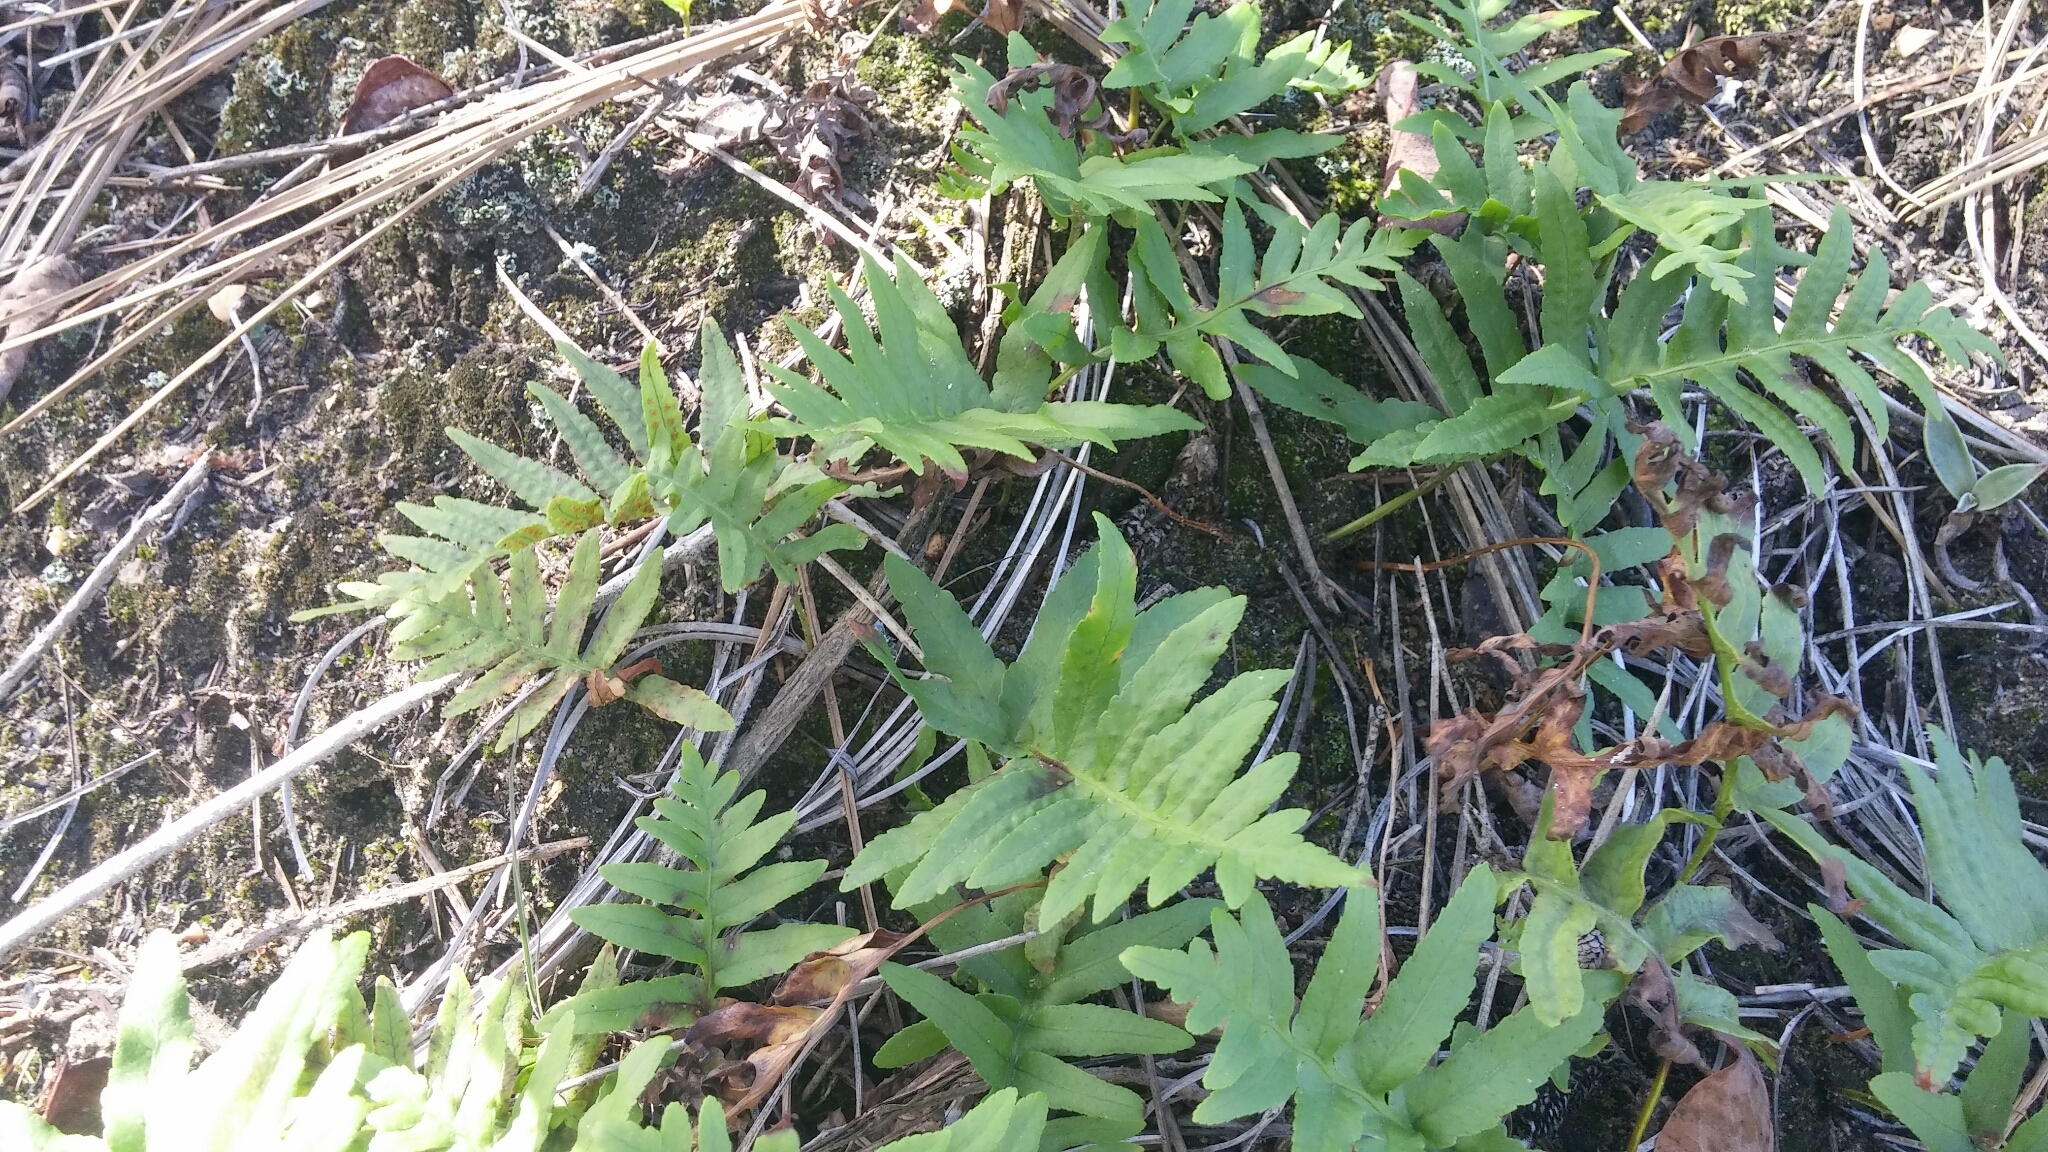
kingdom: Plantae
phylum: Tracheophyta
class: Polypodiopsida
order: Polypodiales
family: Polypodiaceae
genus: Polypodium
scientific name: Polypodium californicum
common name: California polypody
